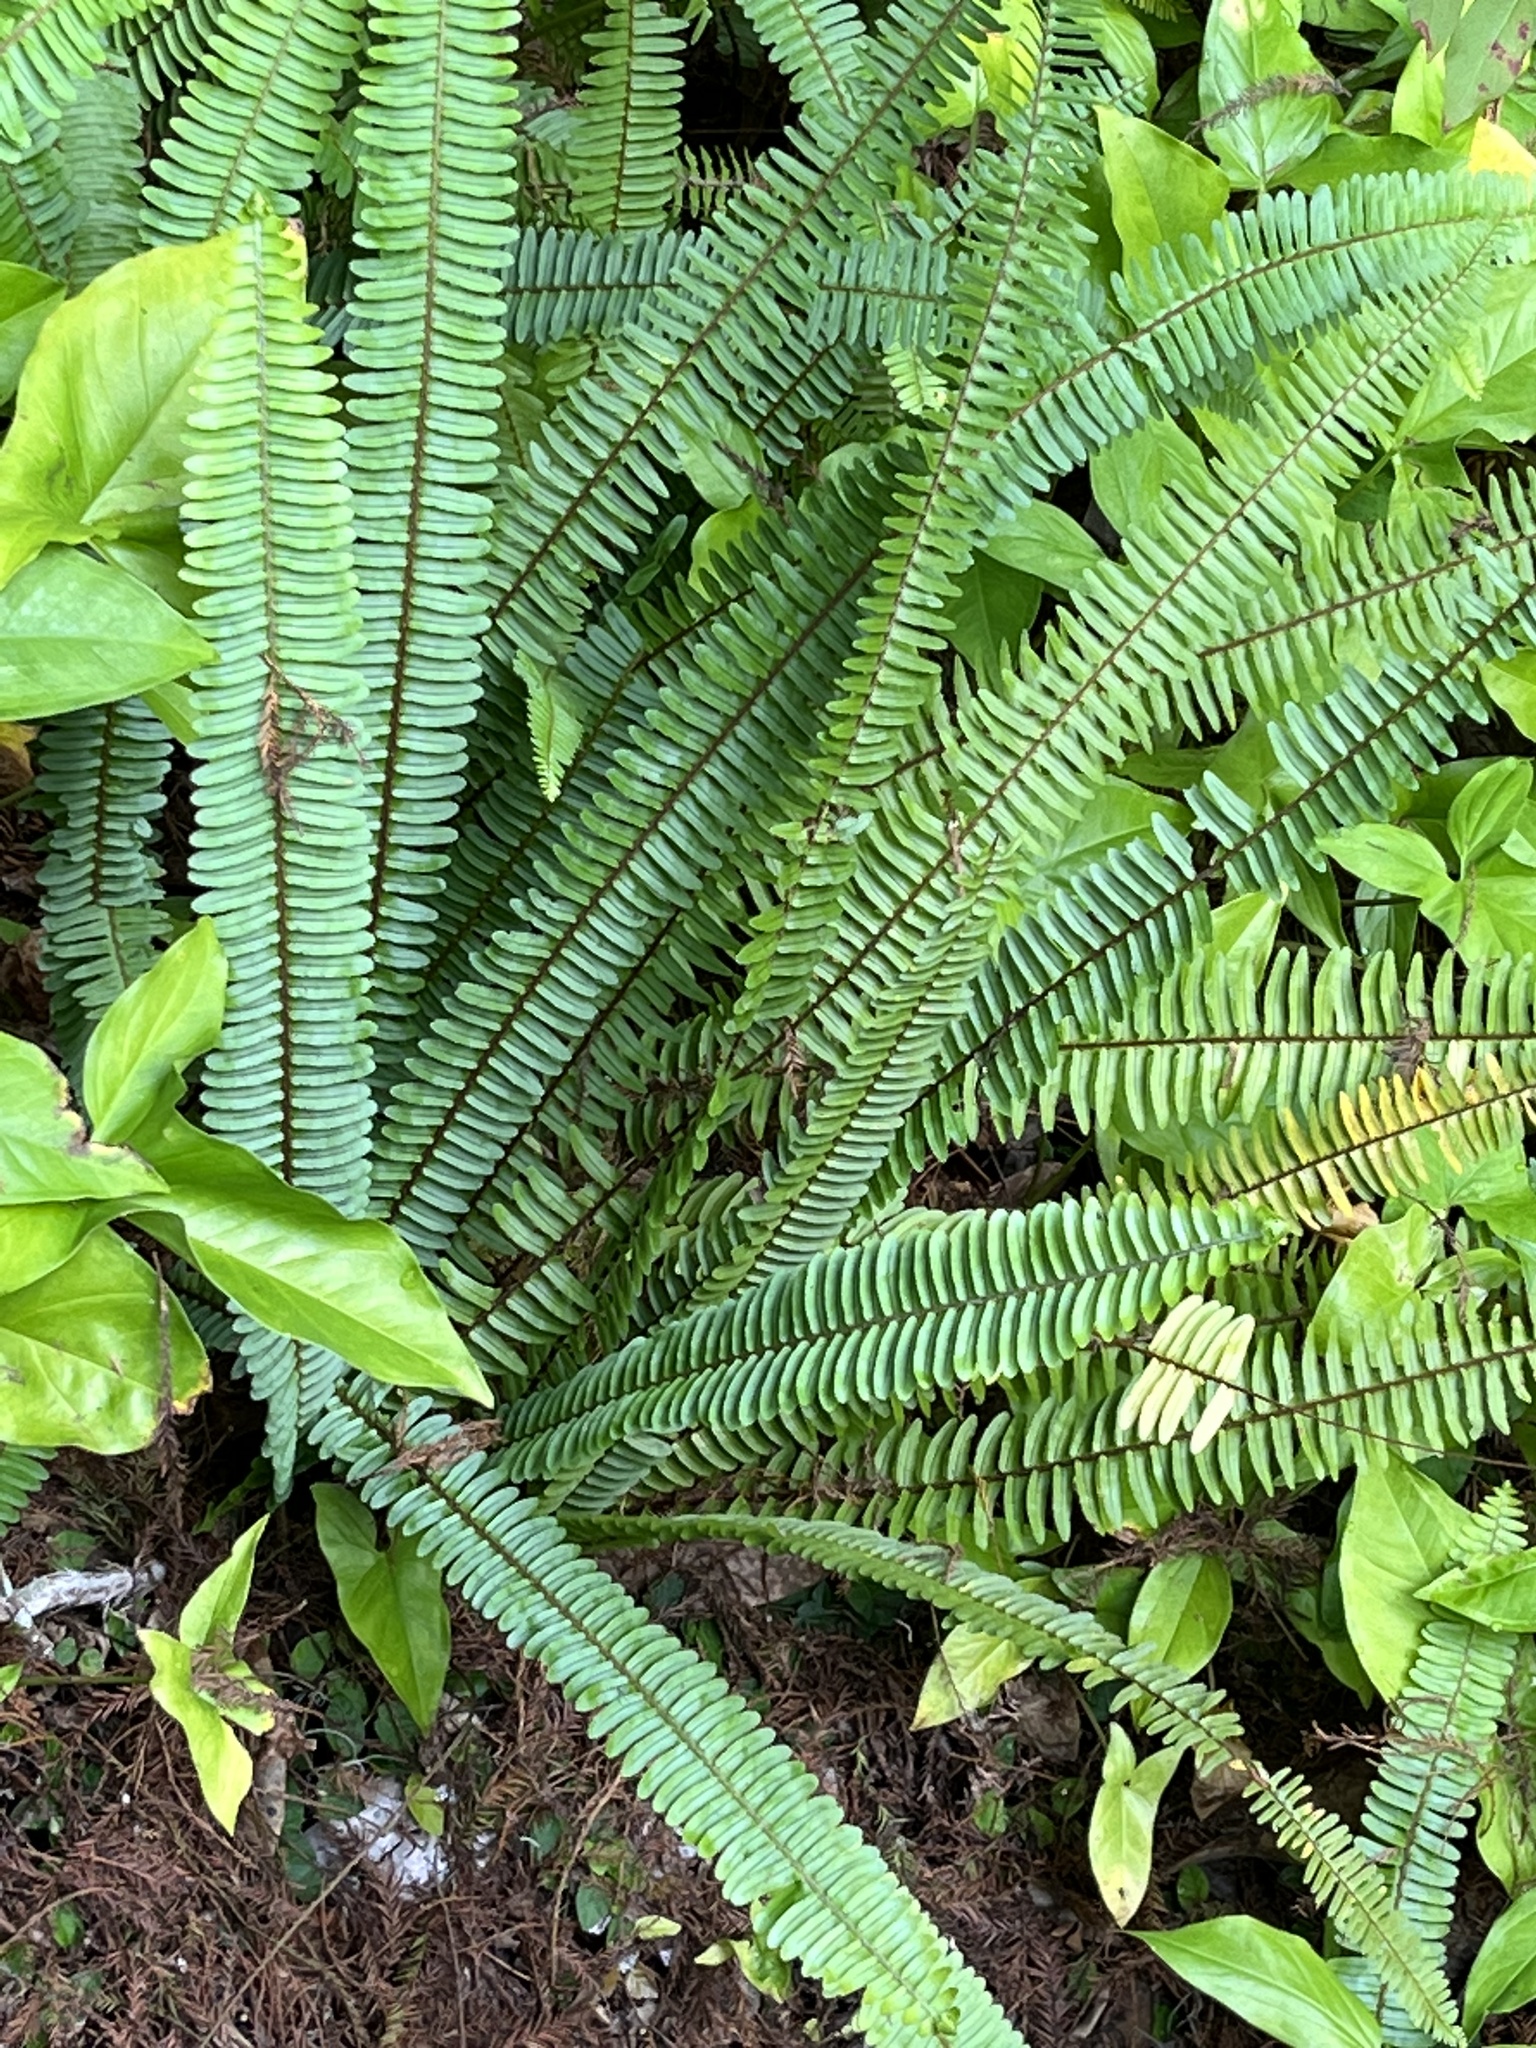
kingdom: Plantae
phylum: Tracheophyta
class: Polypodiopsida
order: Polypodiales
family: Nephrolepidaceae
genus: Nephrolepis
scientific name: Nephrolepis cordifolia
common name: Narrow swordfern
